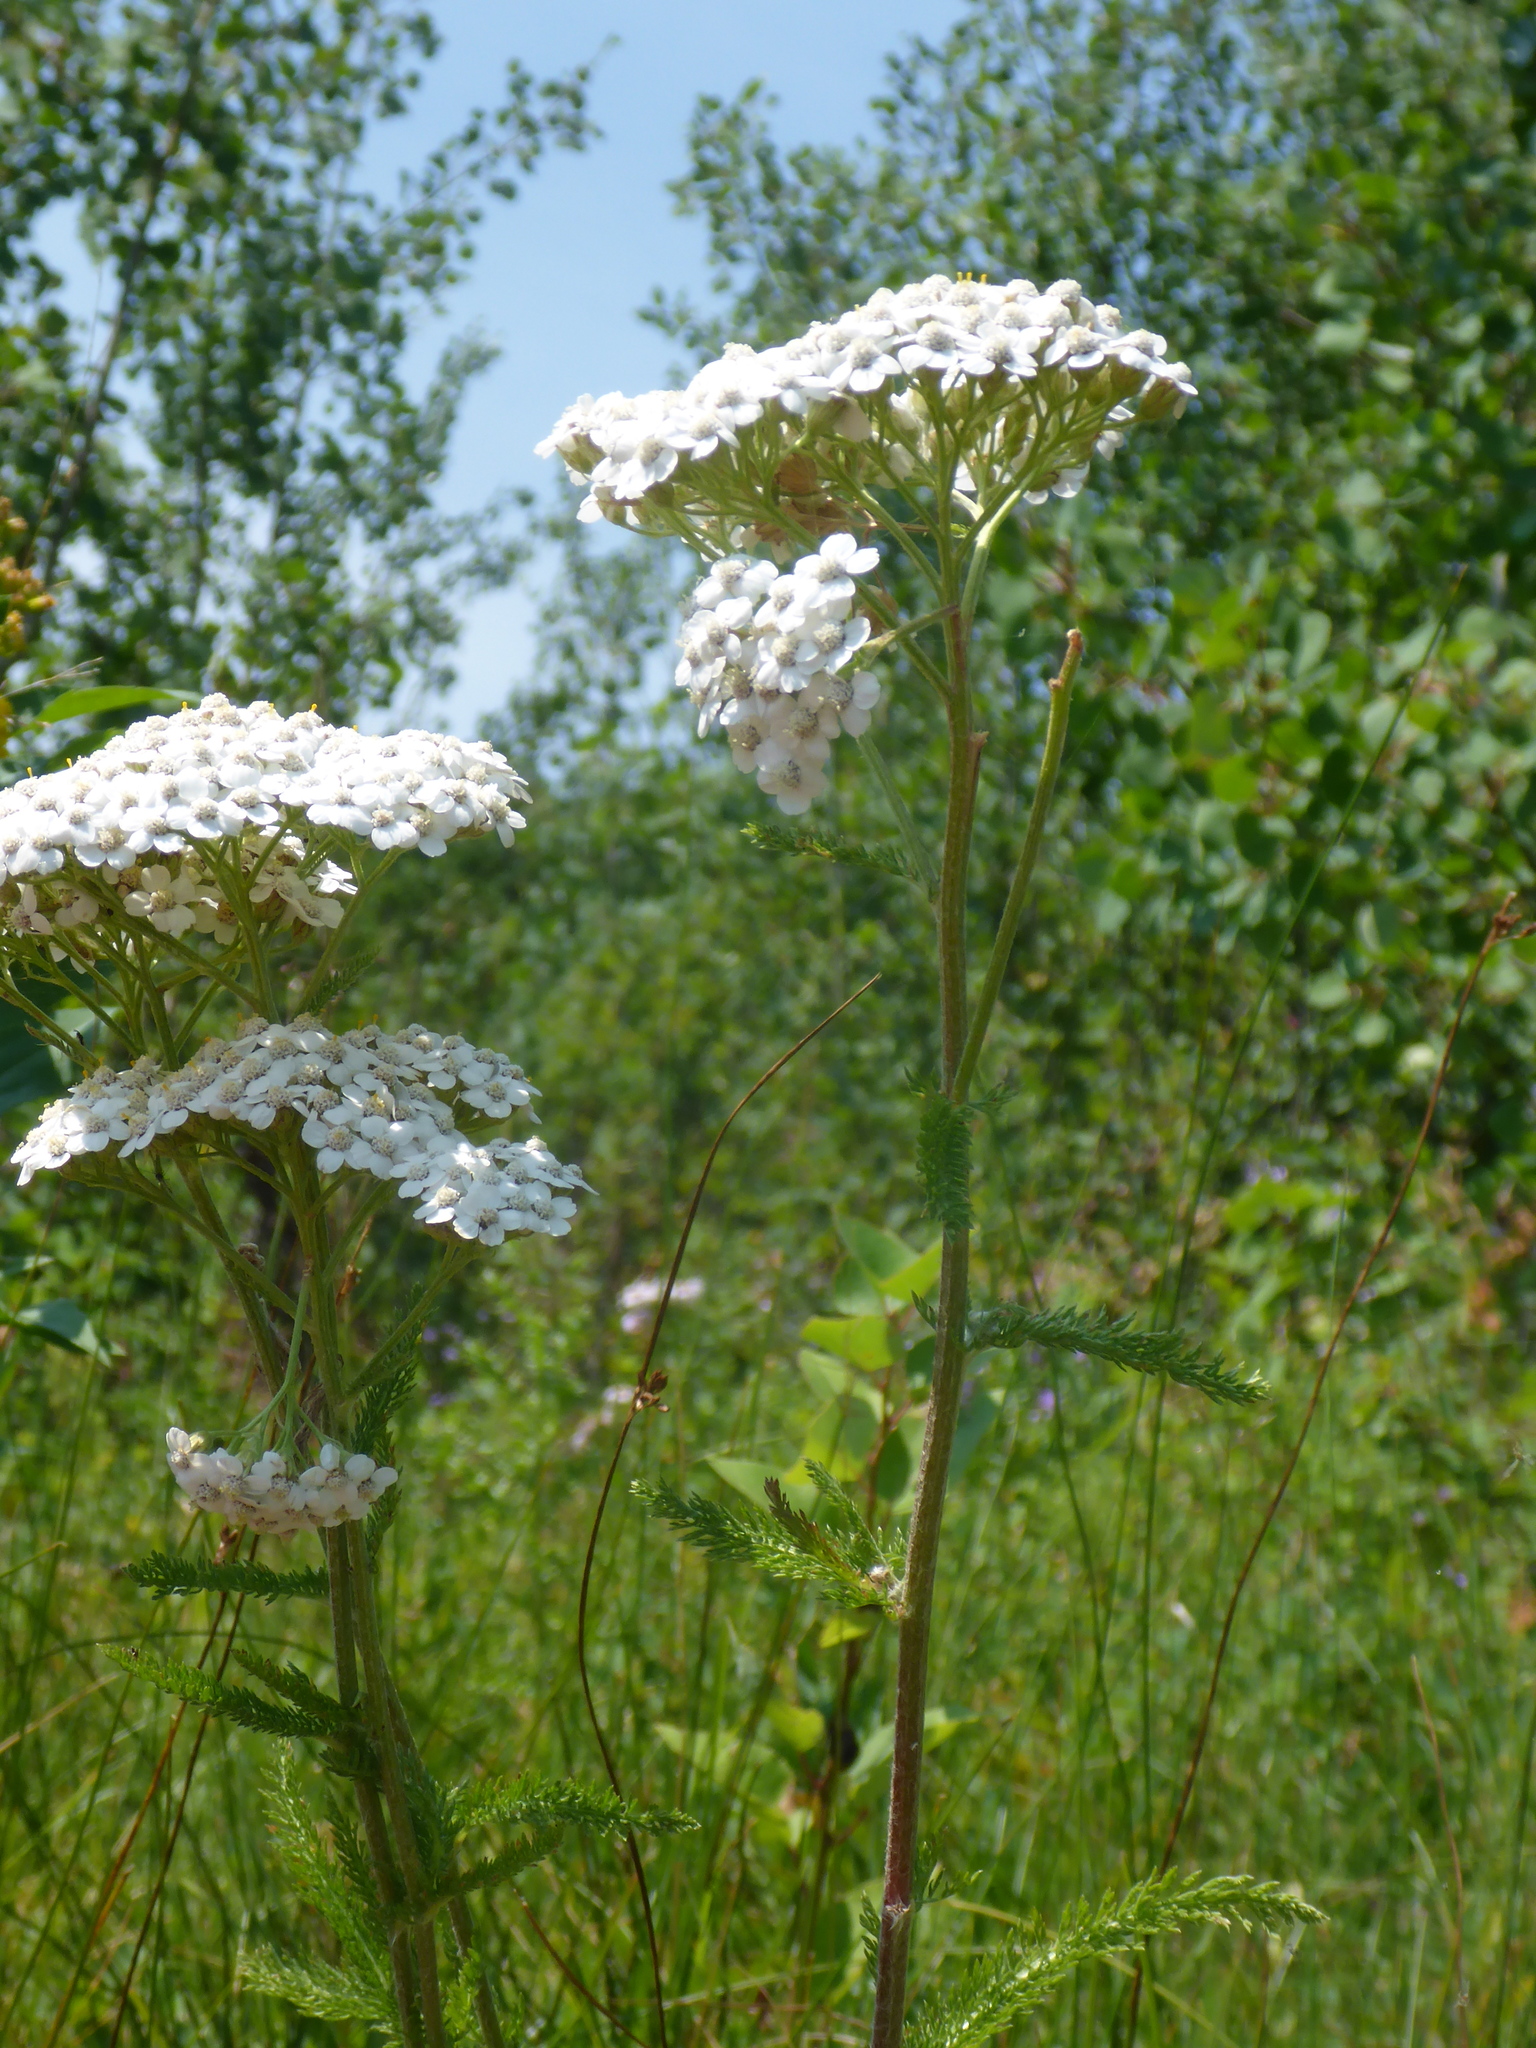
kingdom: Plantae
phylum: Tracheophyta
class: Magnoliopsida
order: Asterales
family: Asteraceae
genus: Achillea
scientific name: Achillea millefolium
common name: Yarrow
